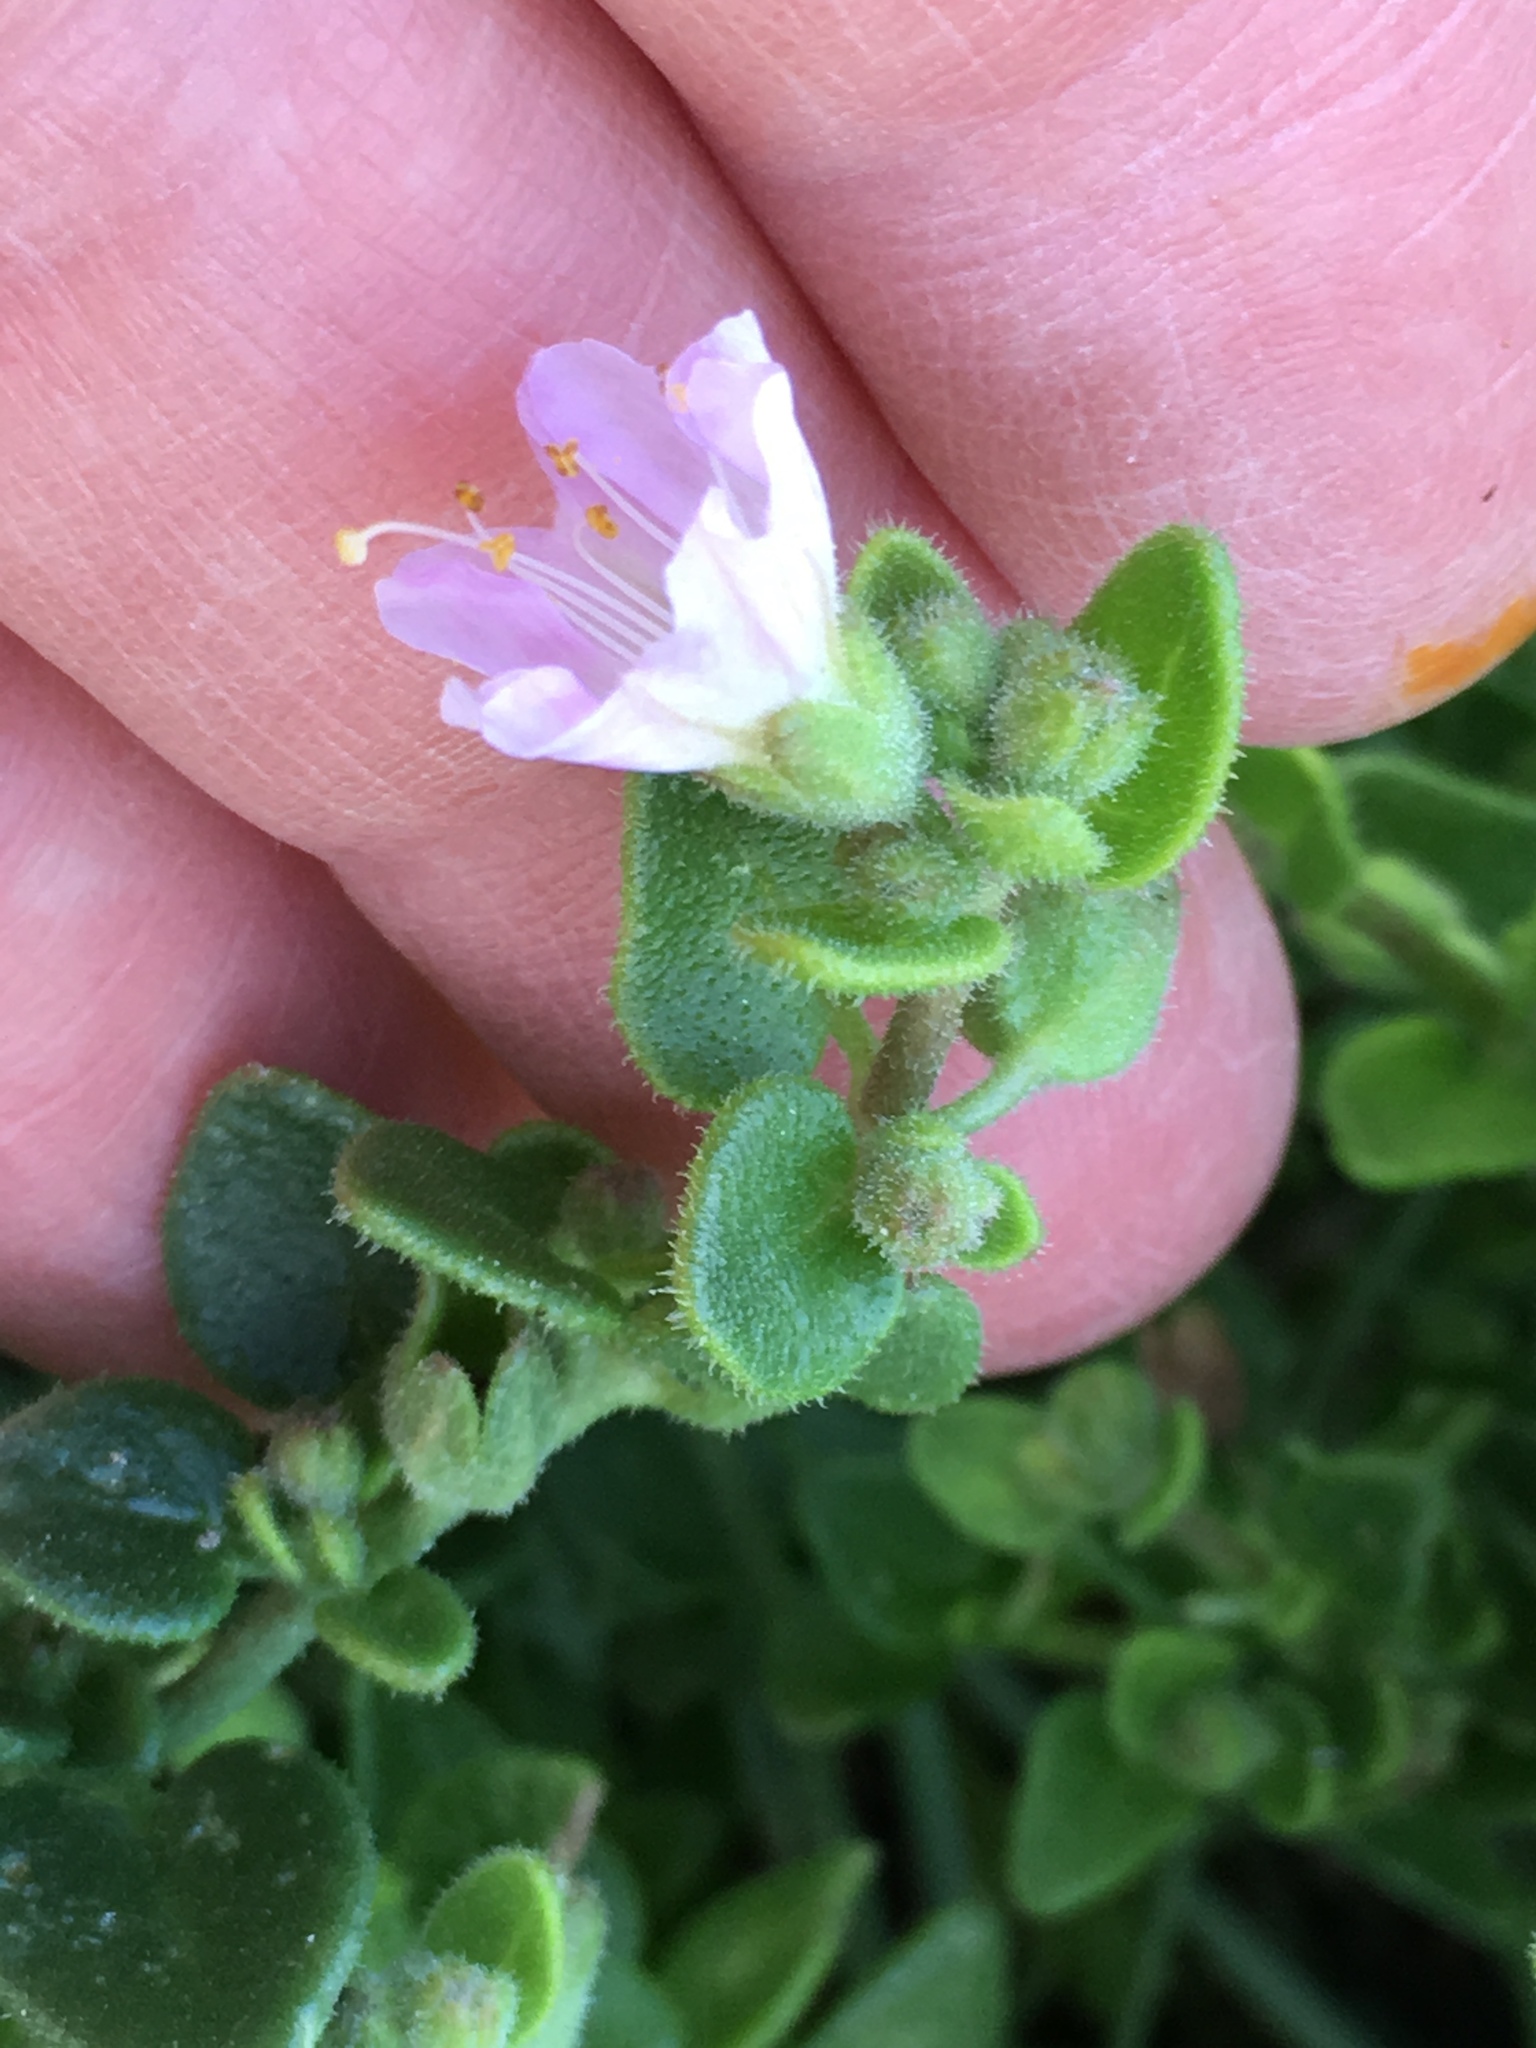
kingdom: Plantae
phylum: Tracheophyta
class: Magnoliopsida
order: Caryophyllales
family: Nyctaginaceae
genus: Mirabilis
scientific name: Mirabilis laevis
